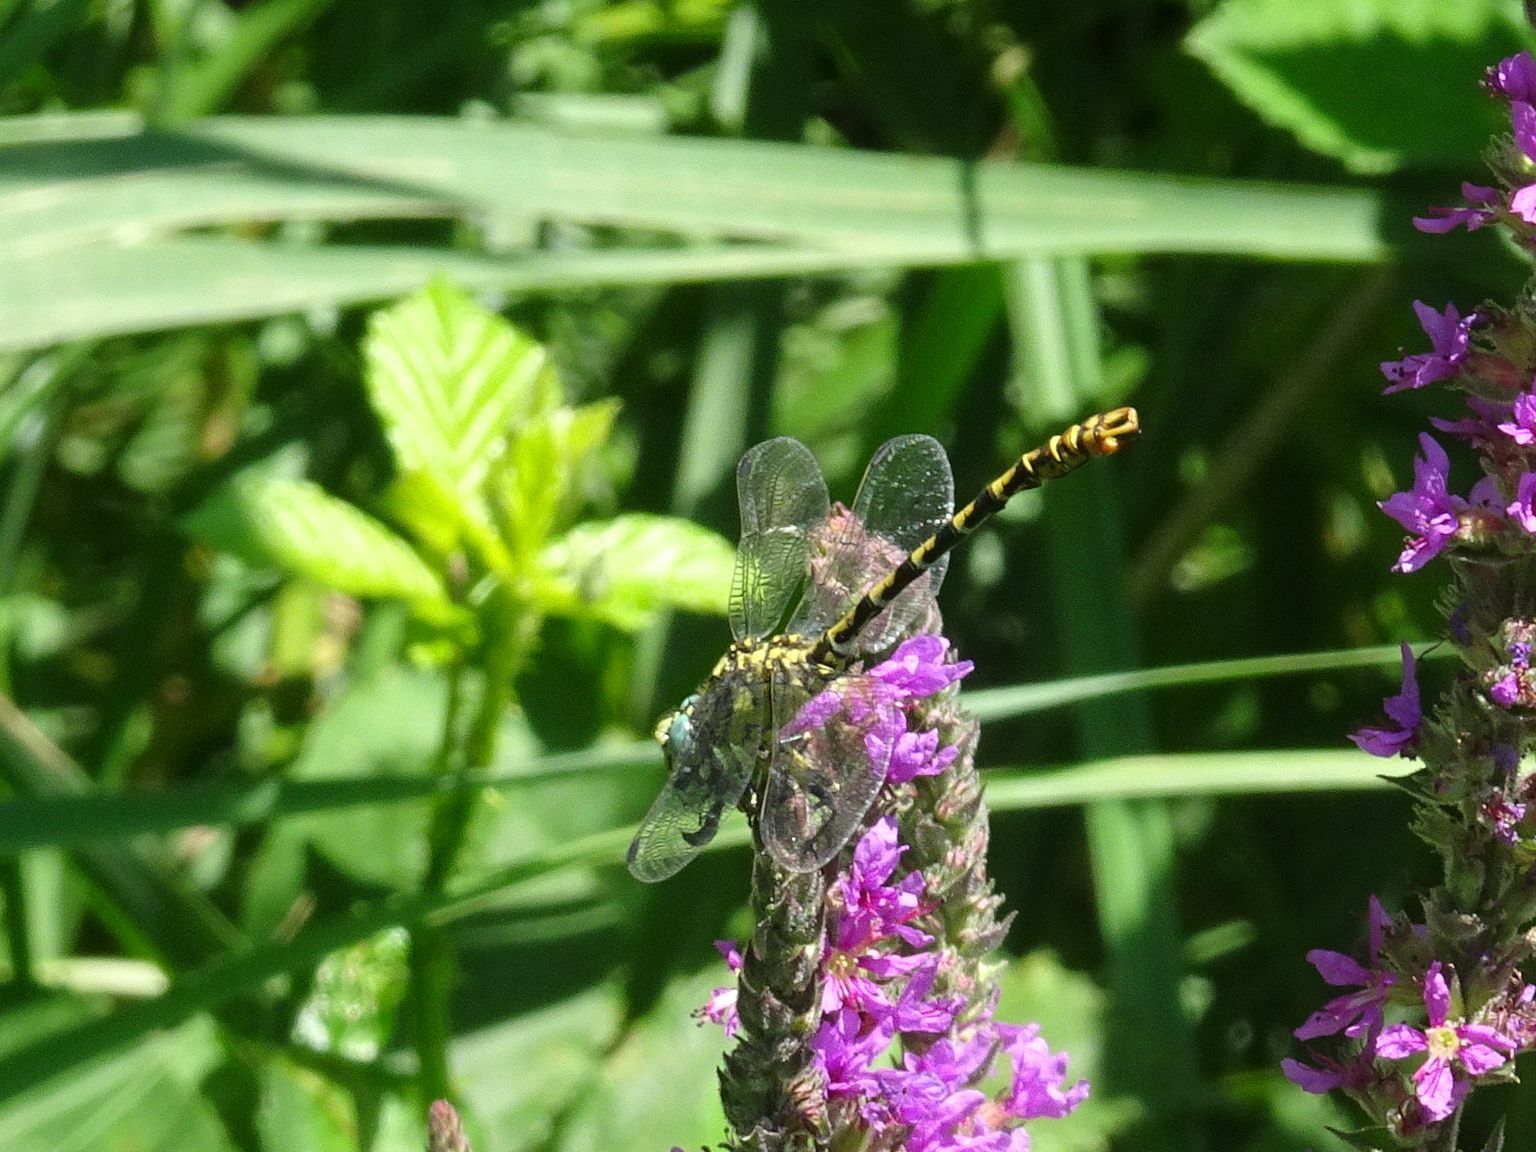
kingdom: Animalia
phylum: Arthropoda
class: Insecta
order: Odonata
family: Gomphidae
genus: Onychogomphus
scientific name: Onychogomphus forcipatus
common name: Small pincertail
